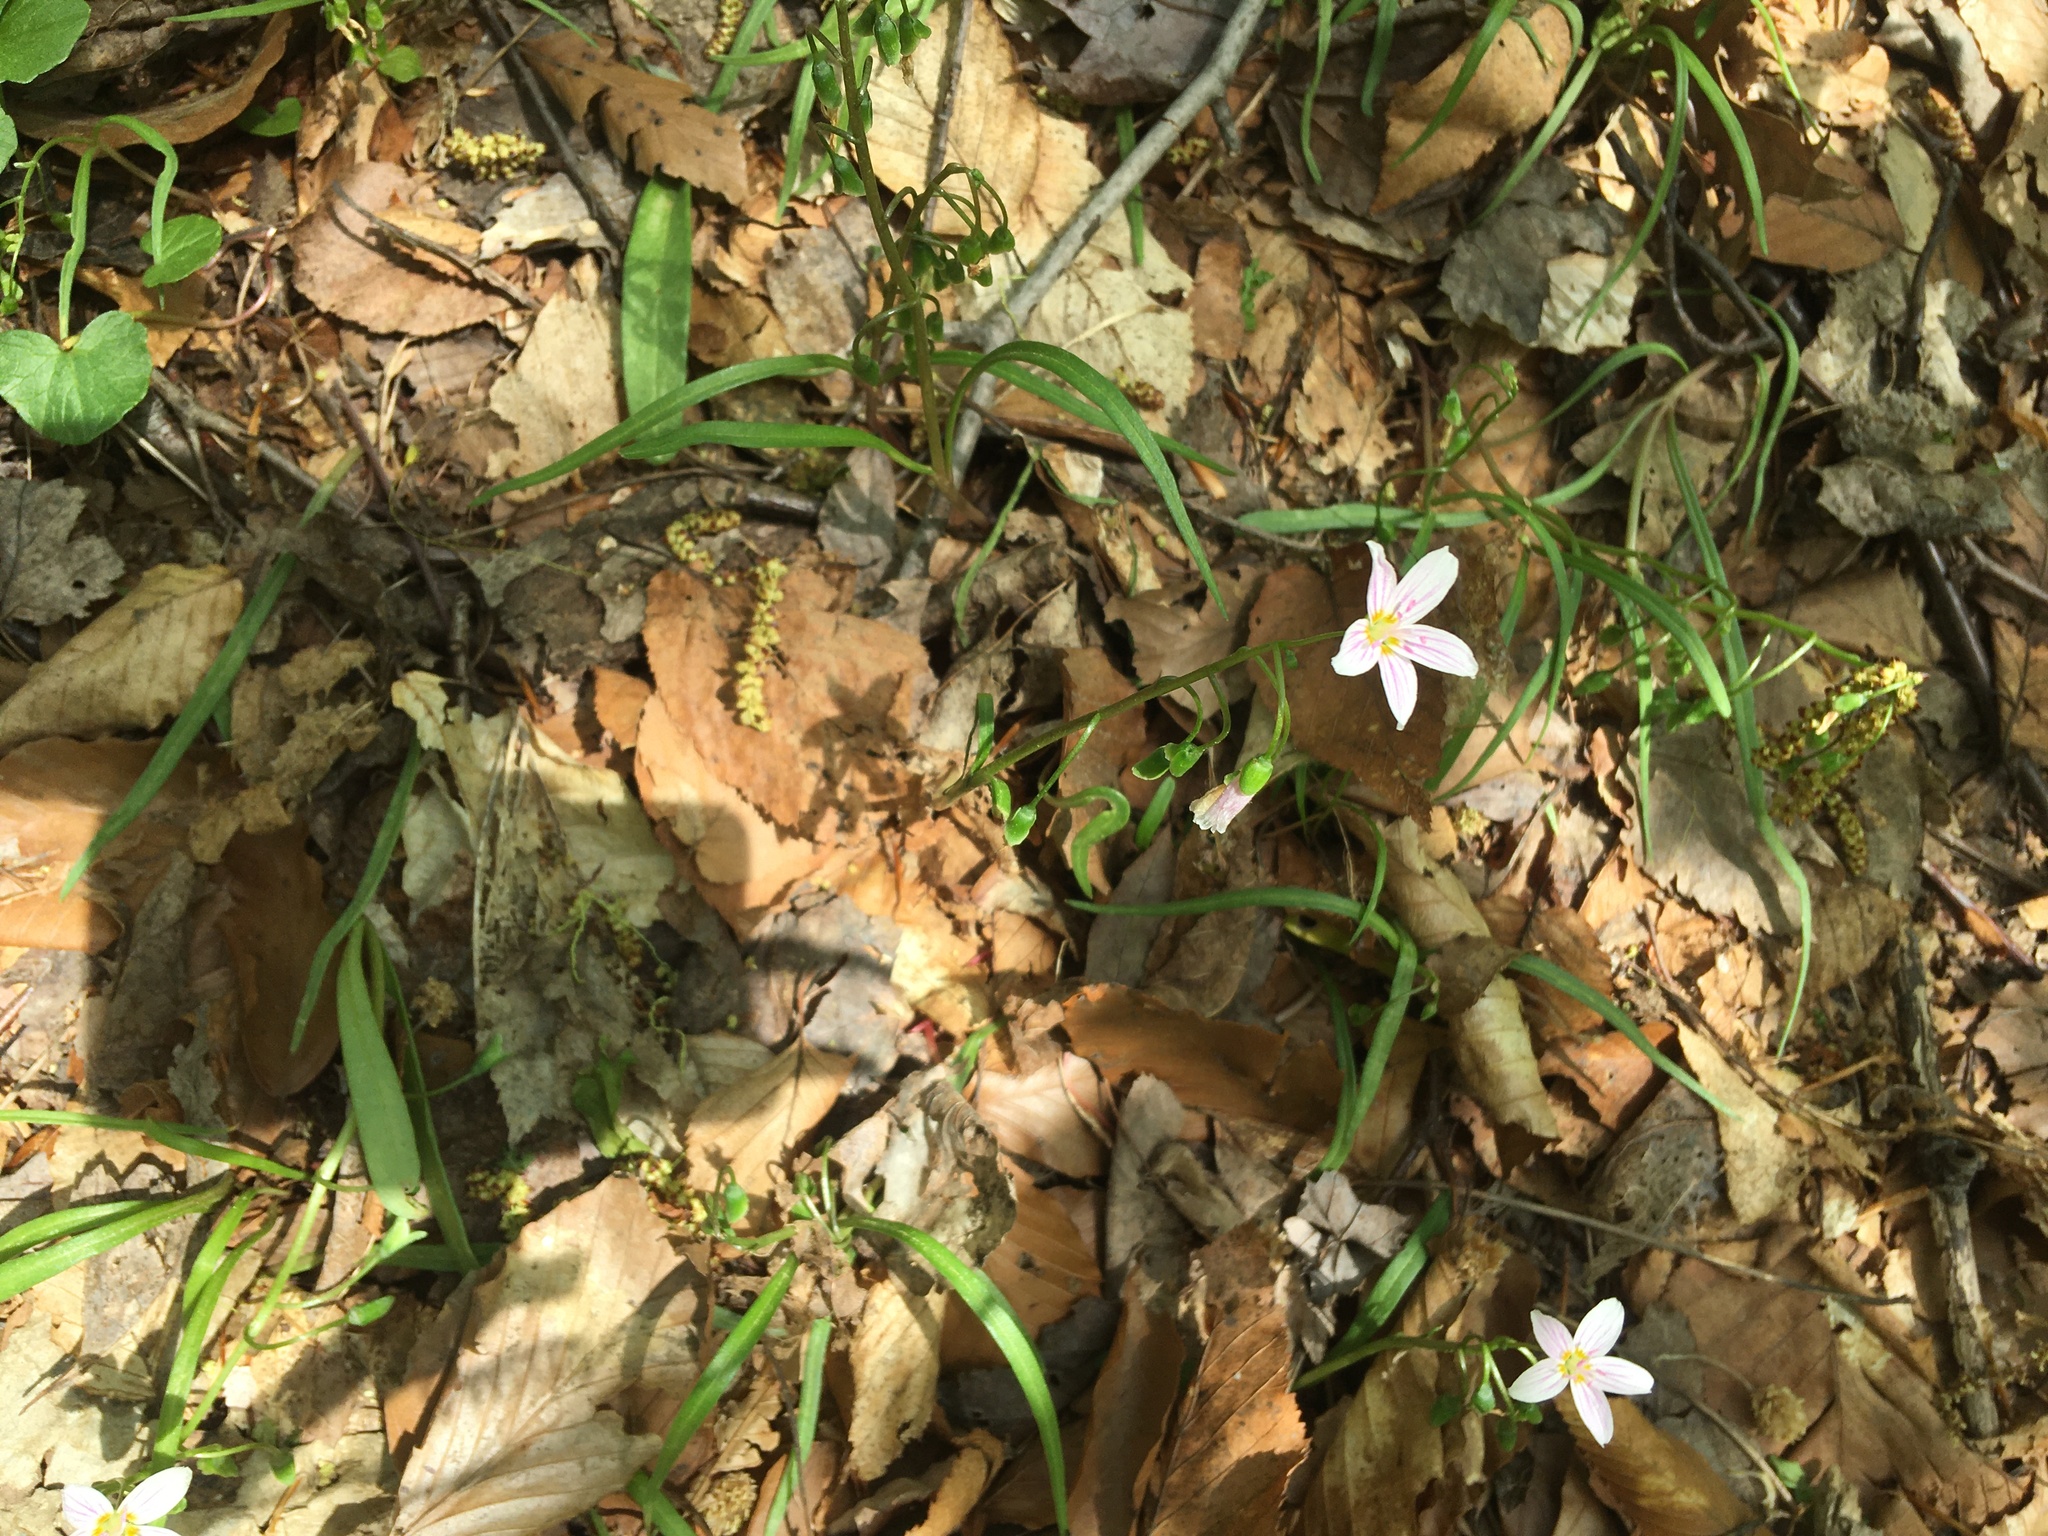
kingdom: Plantae
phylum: Tracheophyta
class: Magnoliopsida
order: Caryophyllales
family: Montiaceae
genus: Claytonia
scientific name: Claytonia virginica
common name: Virginia springbeauty
